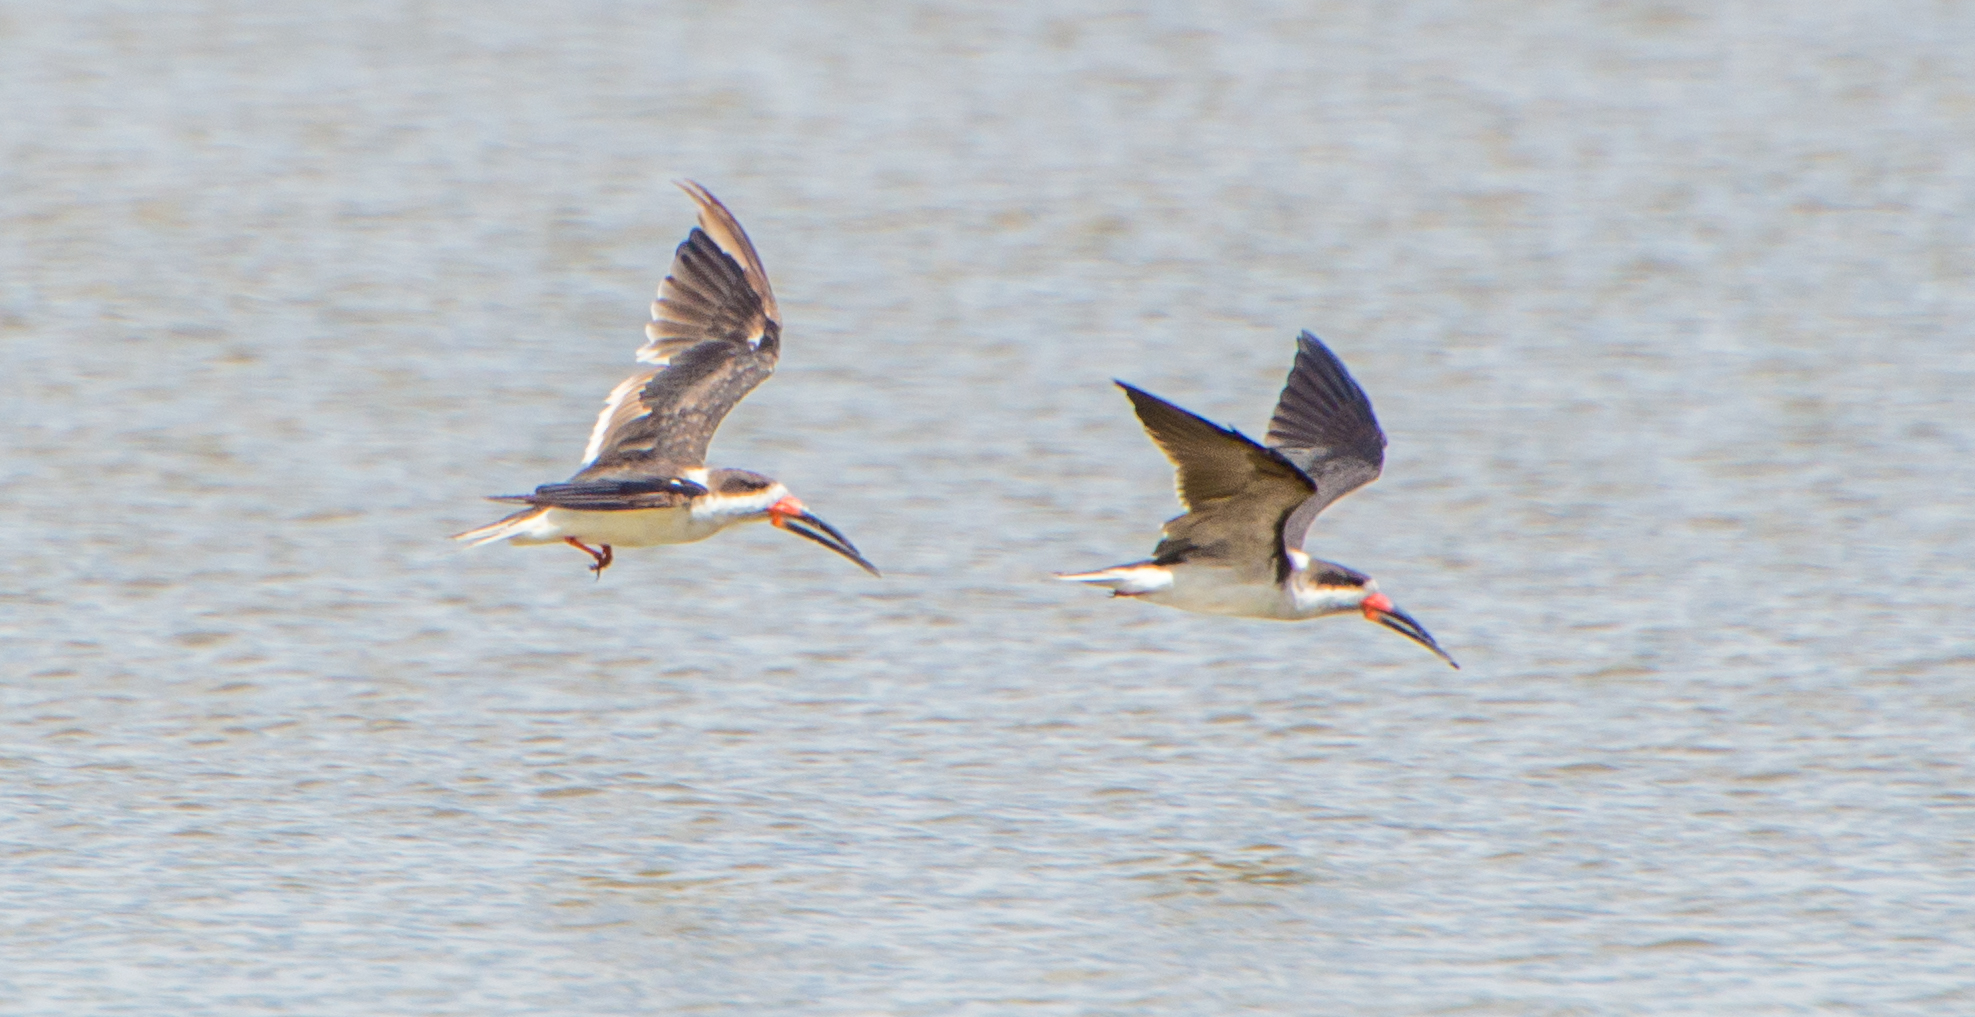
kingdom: Animalia
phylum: Chordata
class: Aves
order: Charadriiformes
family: Laridae
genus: Rynchops
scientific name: Rynchops niger
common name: Black skimmer
